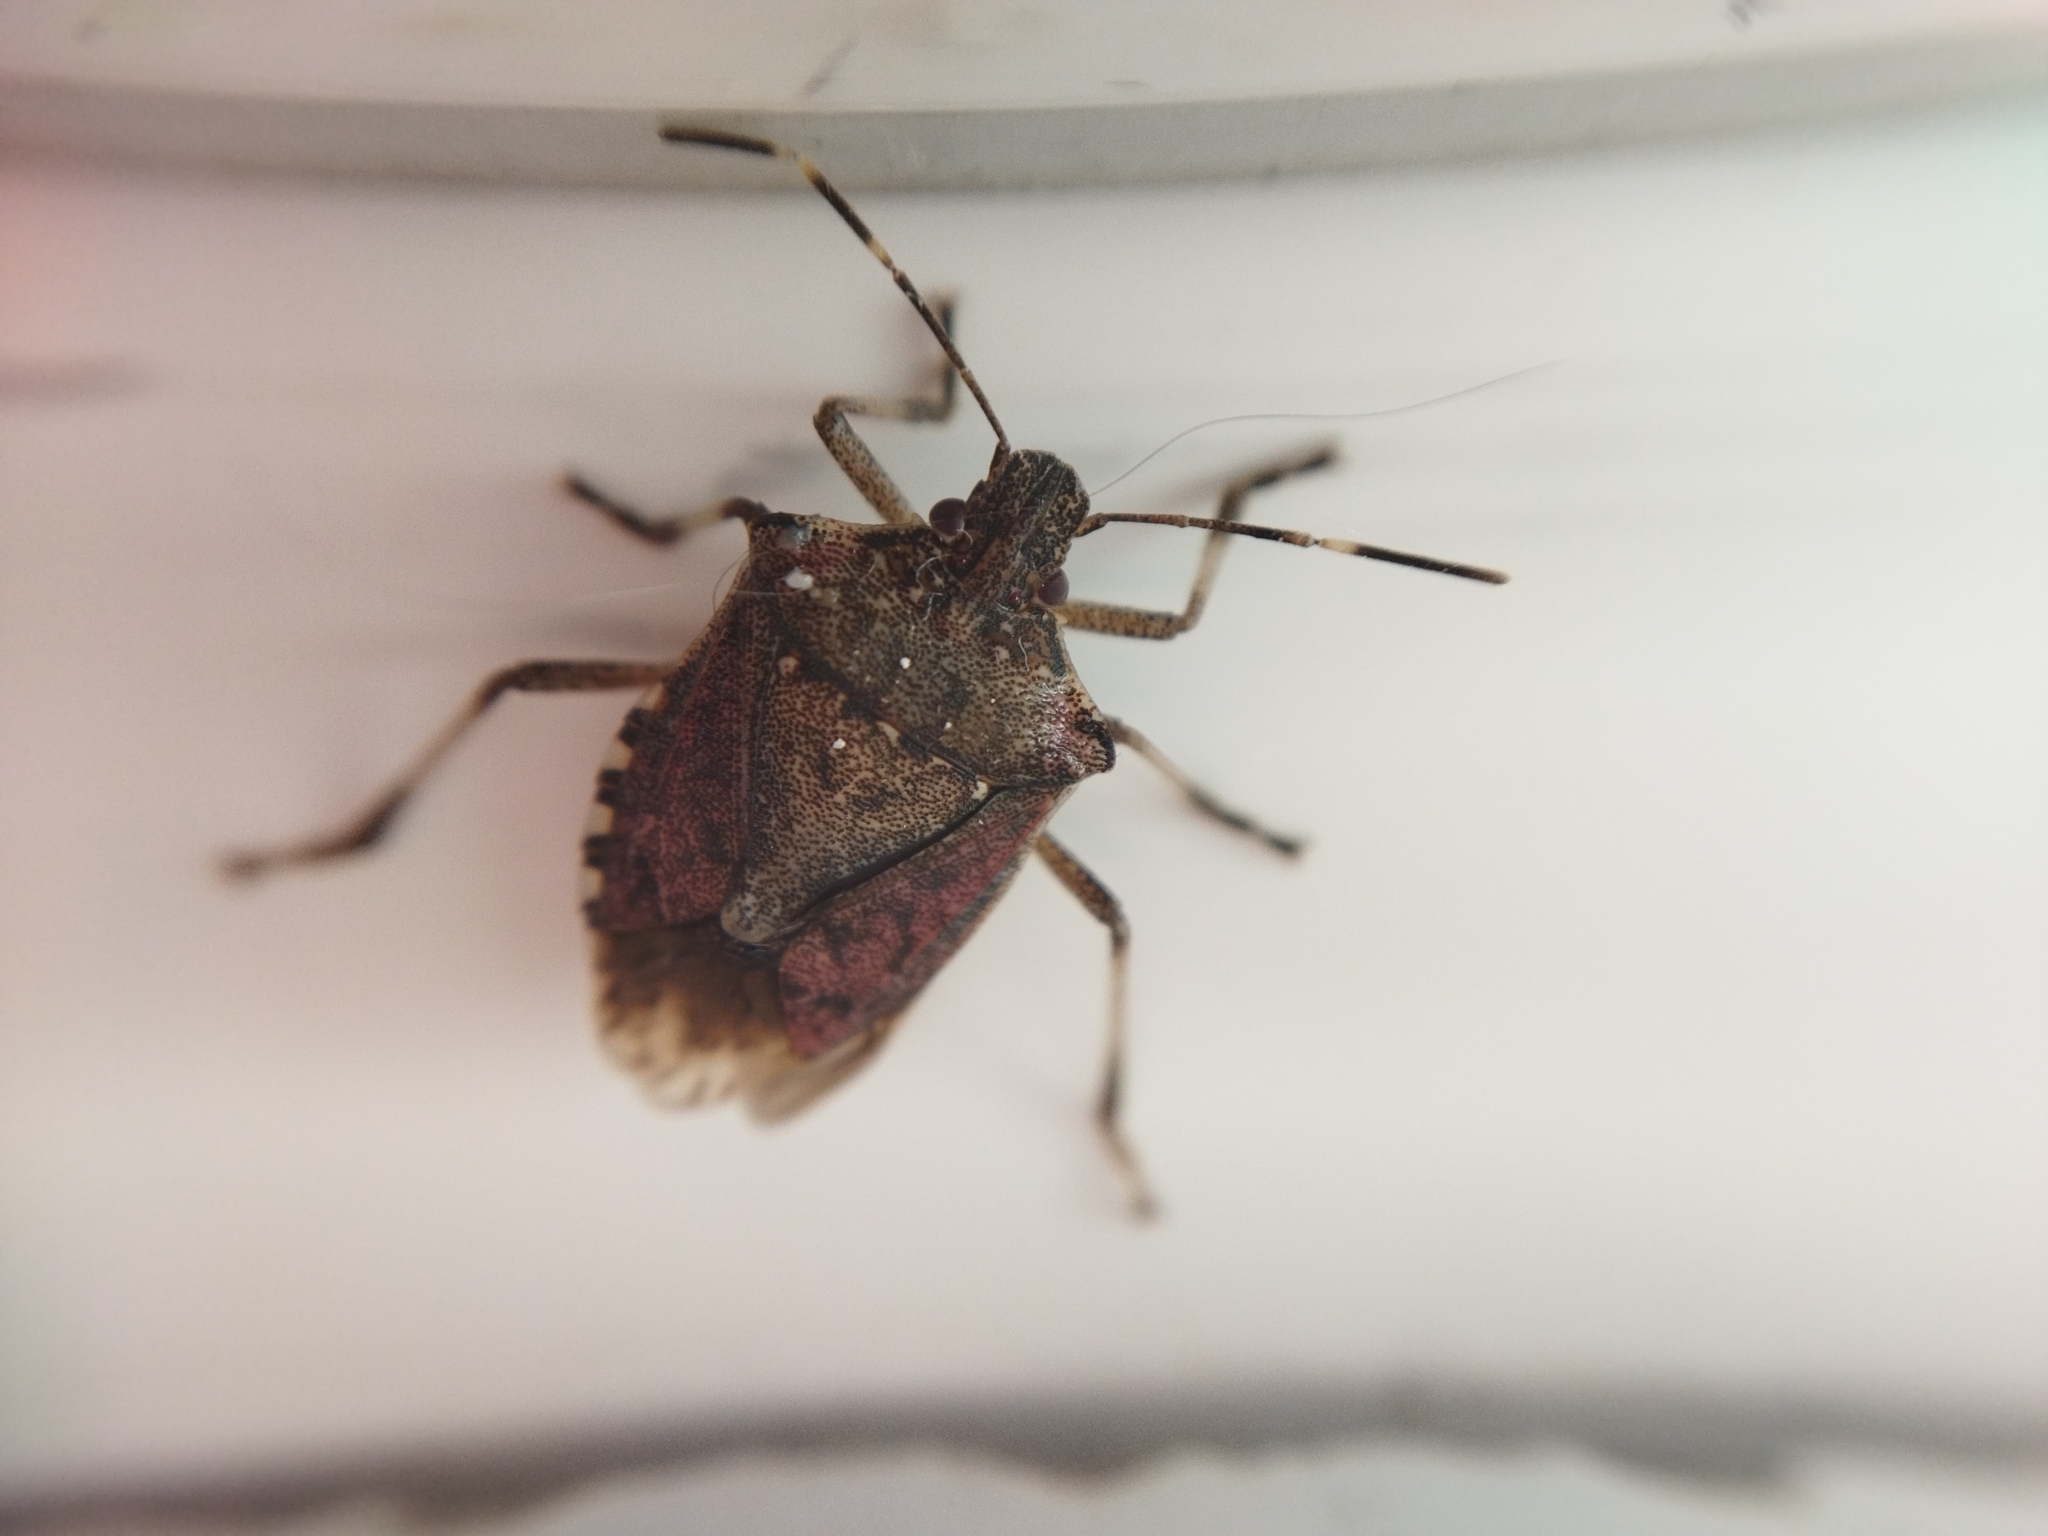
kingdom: Animalia
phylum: Arthropoda
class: Insecta
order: Hemiptera
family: Pentatomidae
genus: Halyomorpha
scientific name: Halyomorpha halys
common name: Brown marmorated stink bug
